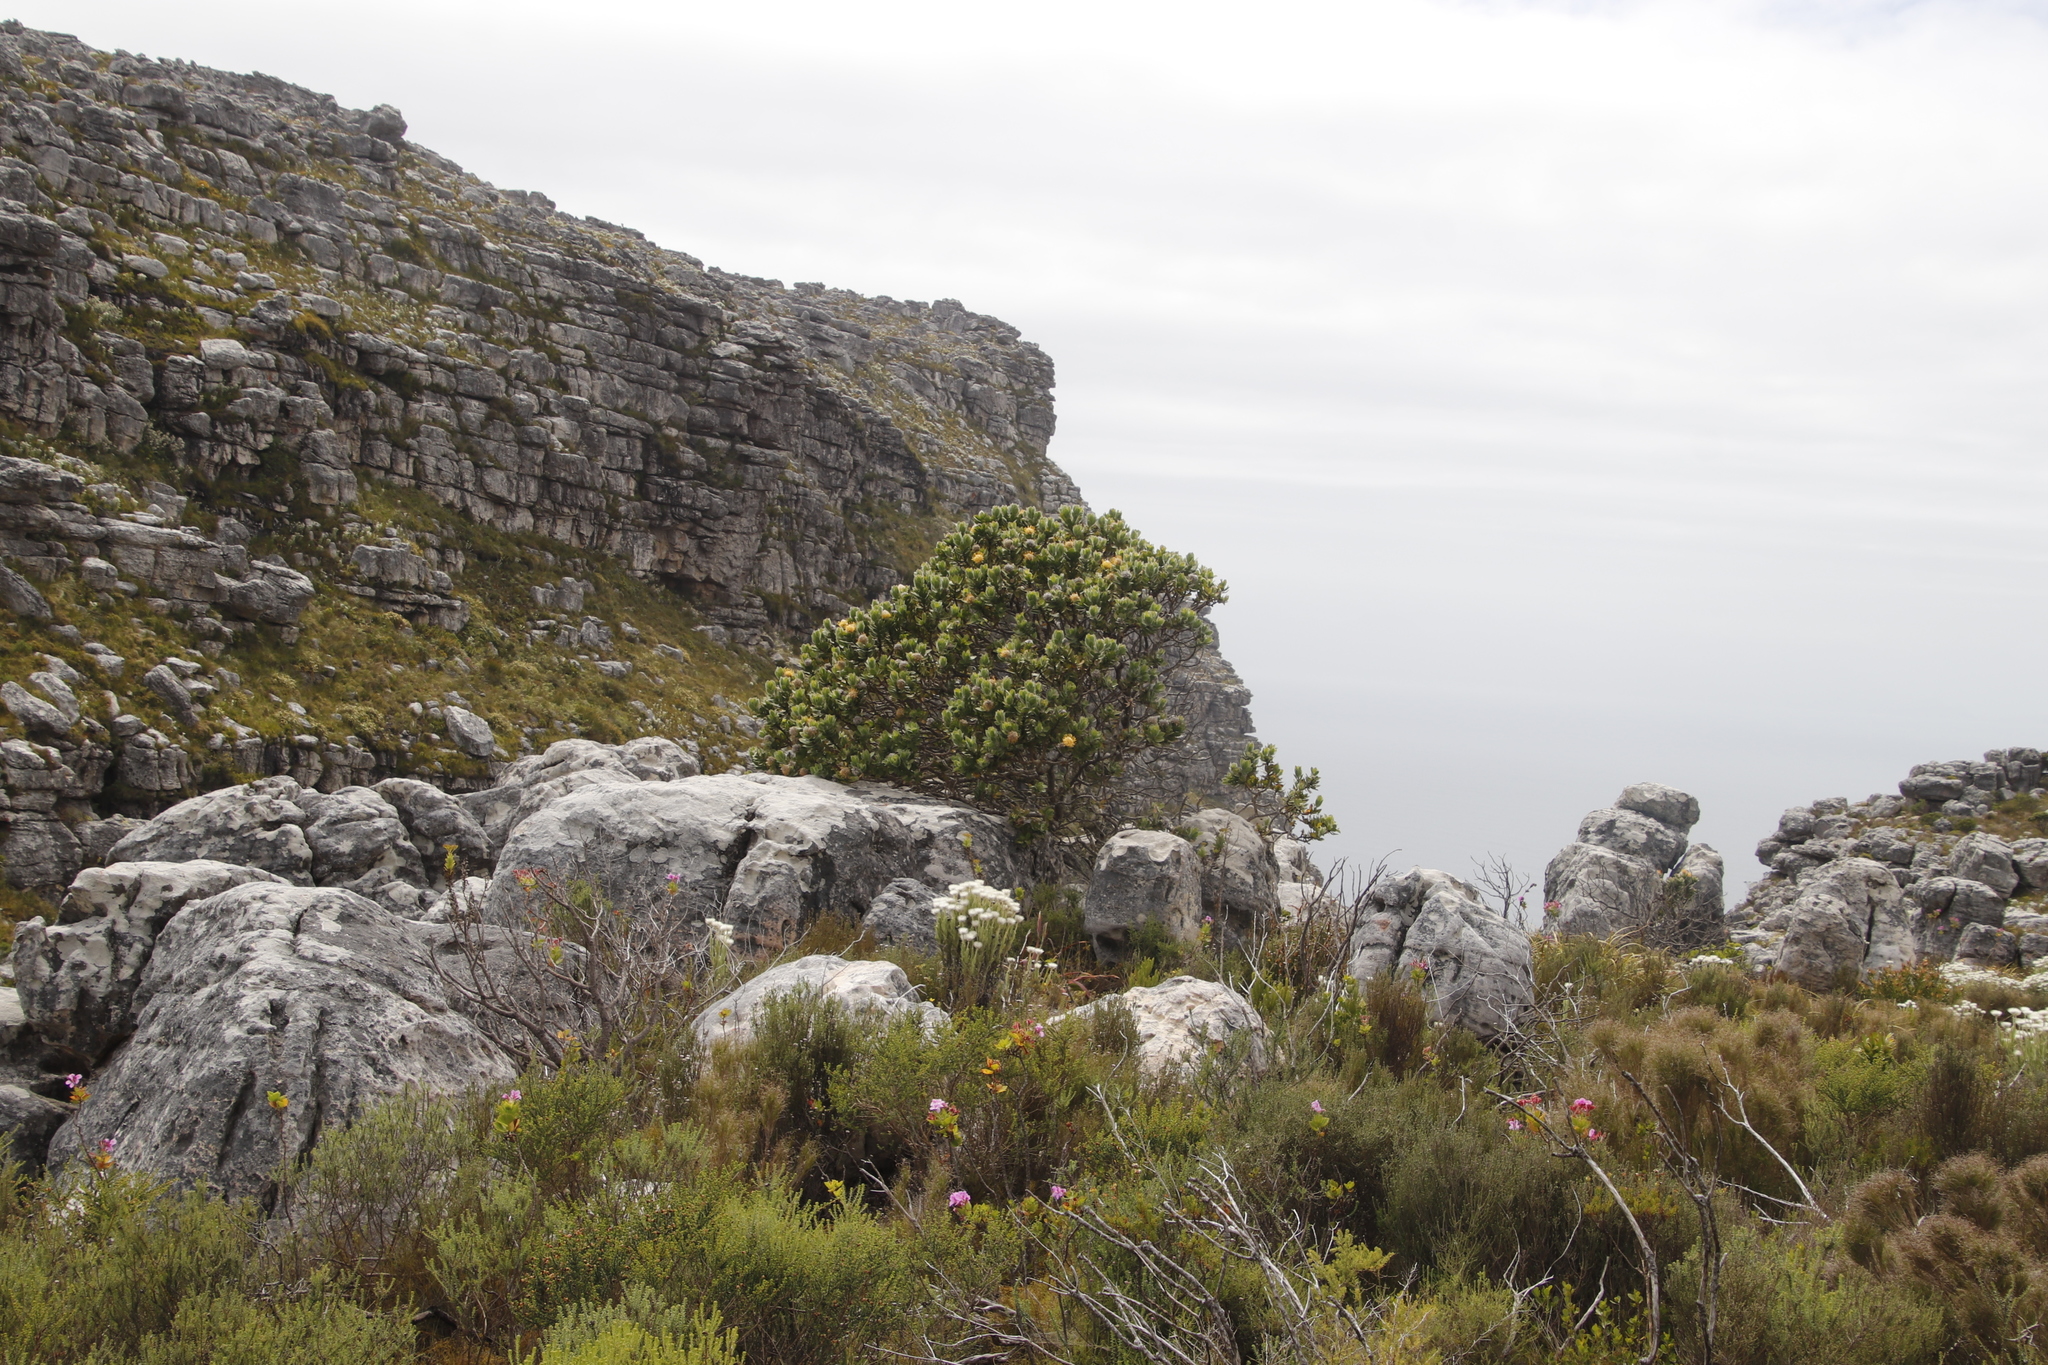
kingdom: Plantae
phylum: Tracheophyta
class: Magnoliopsida
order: Proteales
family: Proteaceae
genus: Leucospermum
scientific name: Leucospermum conocarpodendron
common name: Tree pincushion
